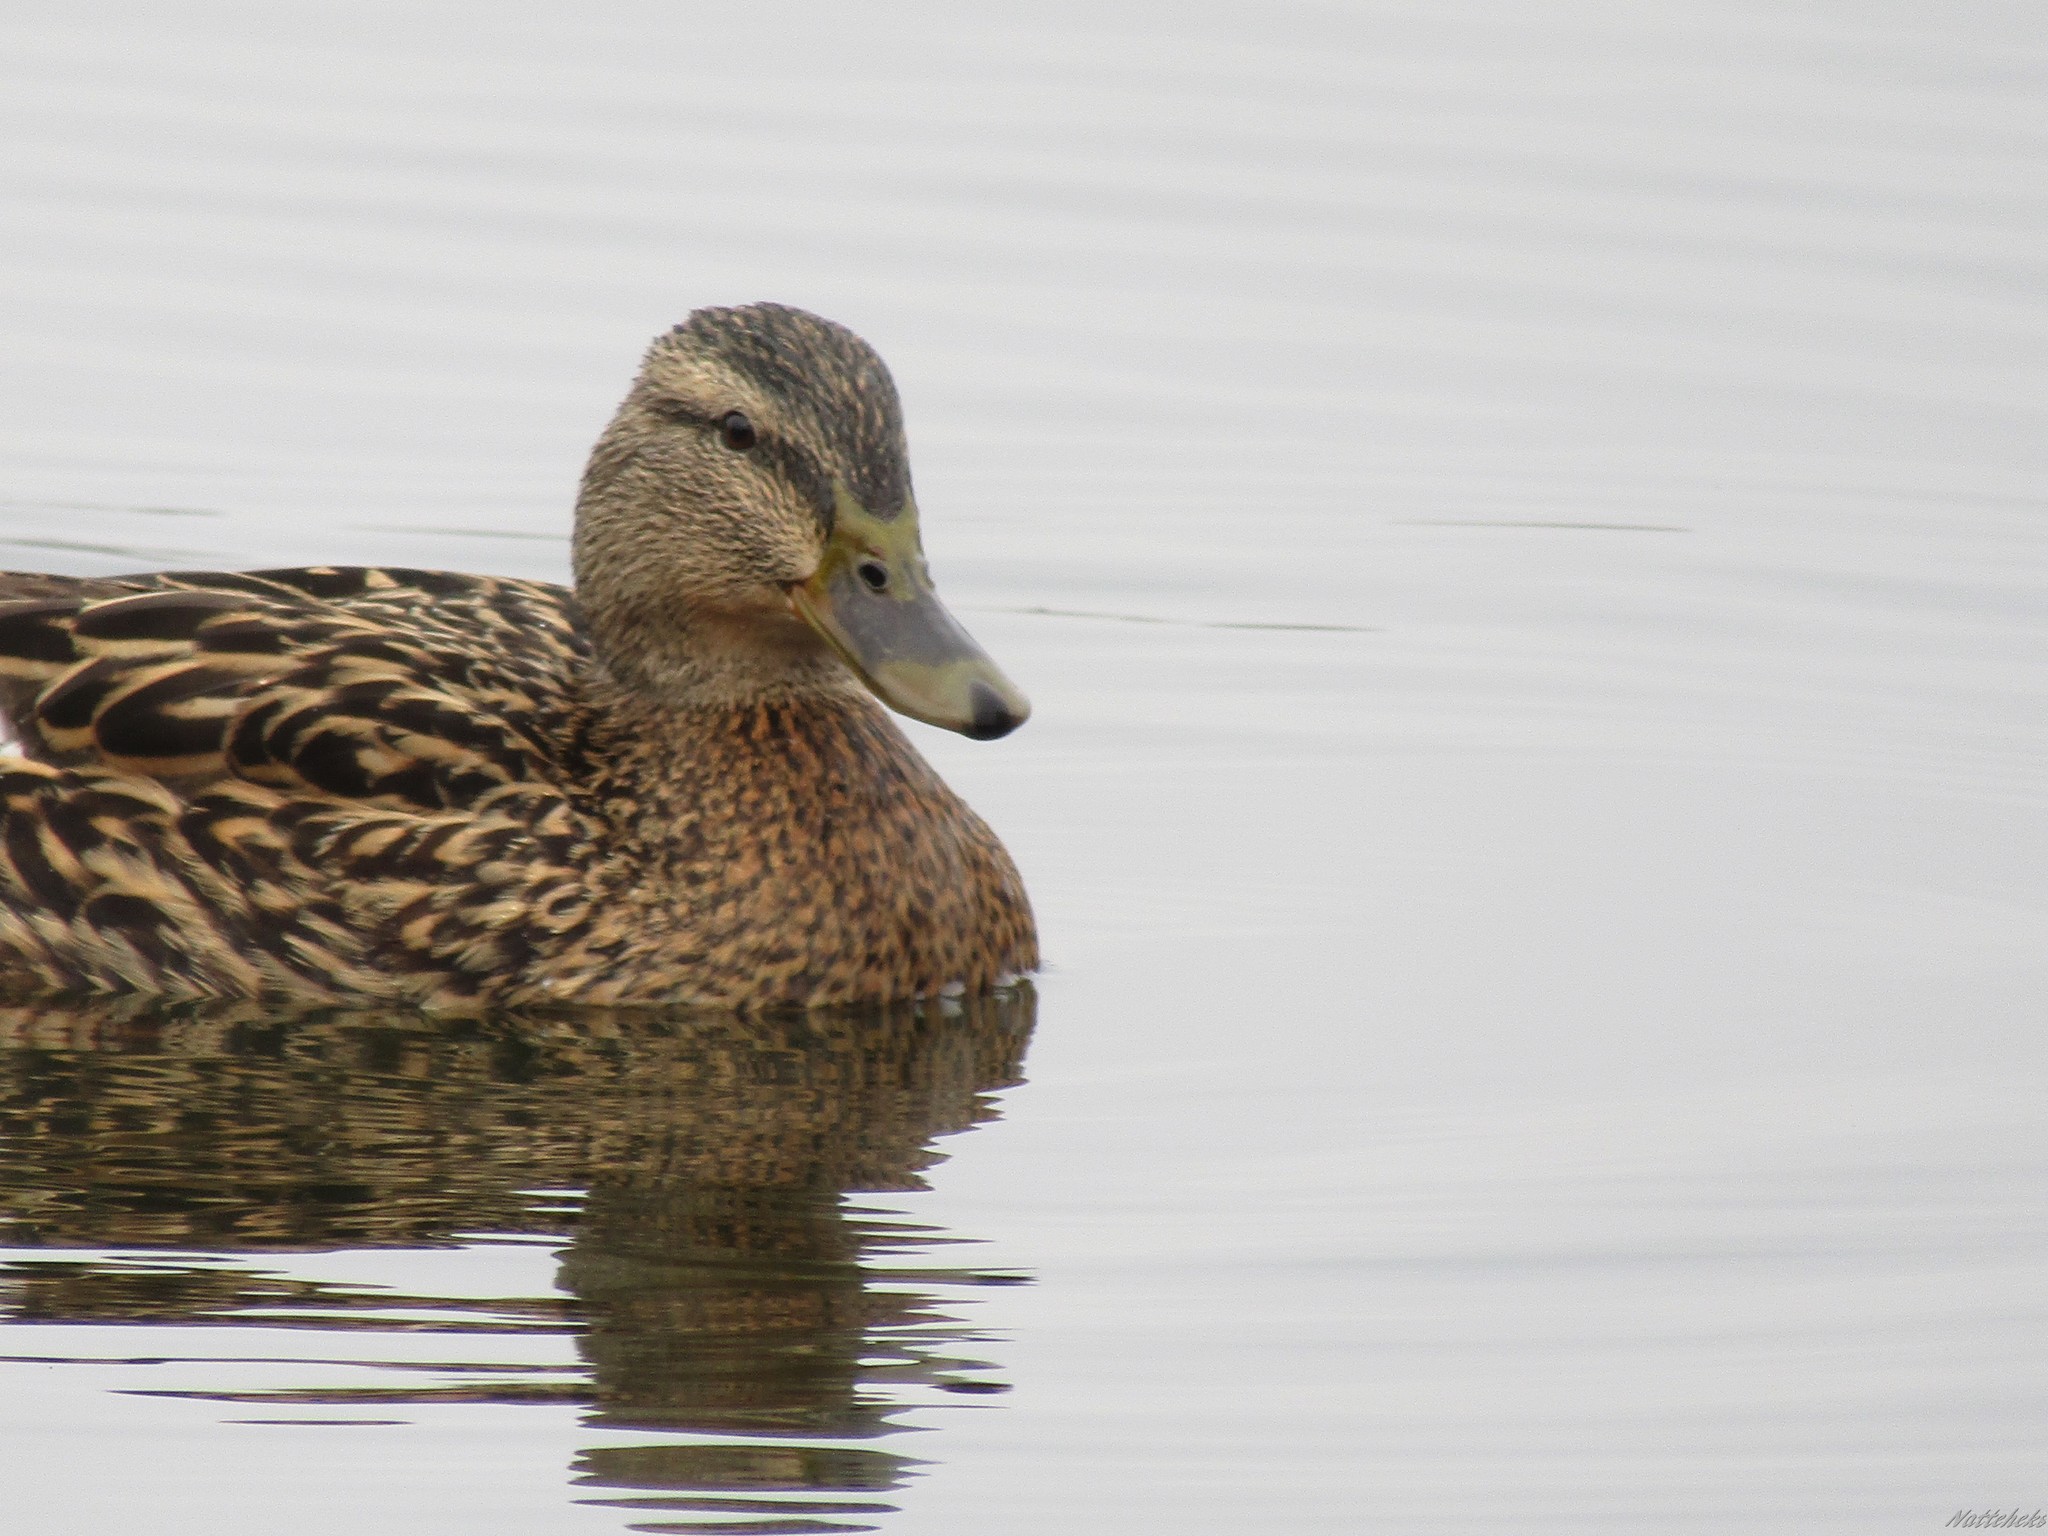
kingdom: Animalia
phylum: Chordata
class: Aves
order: Anseriformes
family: Anatidae
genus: Anas
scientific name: Anas platyrhynchos
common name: Mallard
